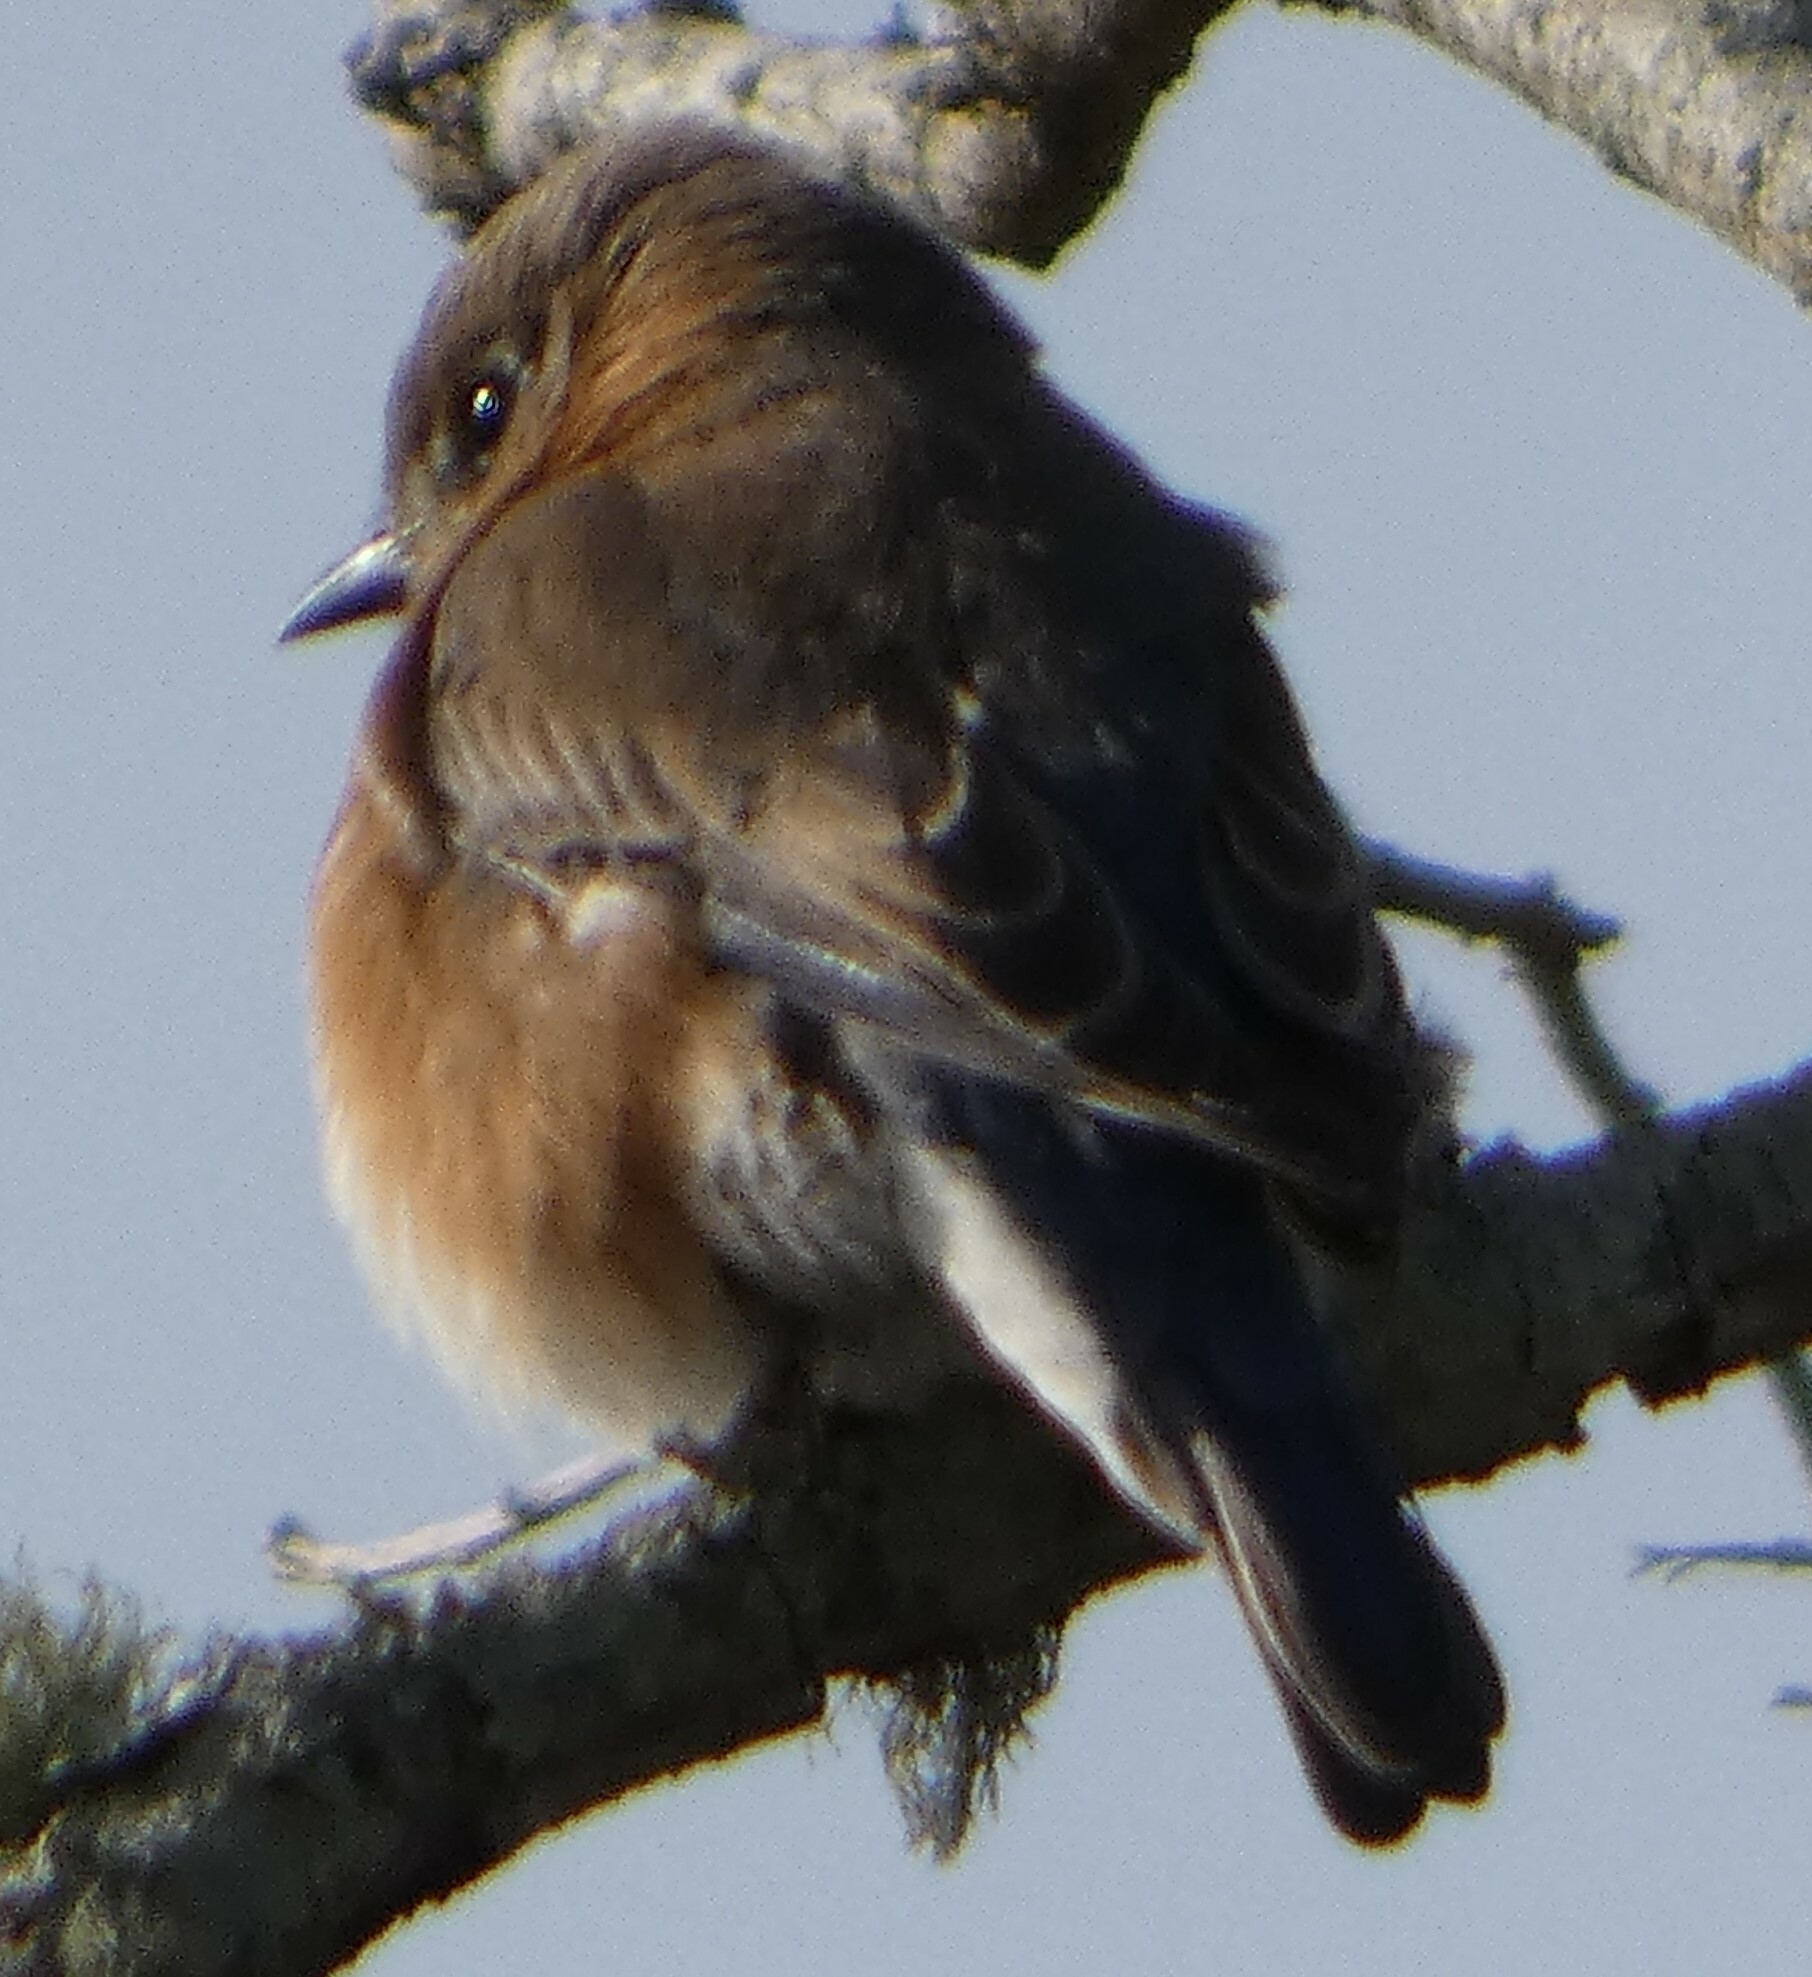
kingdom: Animalia
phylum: Chordata
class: Aves
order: Passeriformes
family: Turdidae
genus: Sialia
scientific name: Sialia sialis
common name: Eastern bluebird
